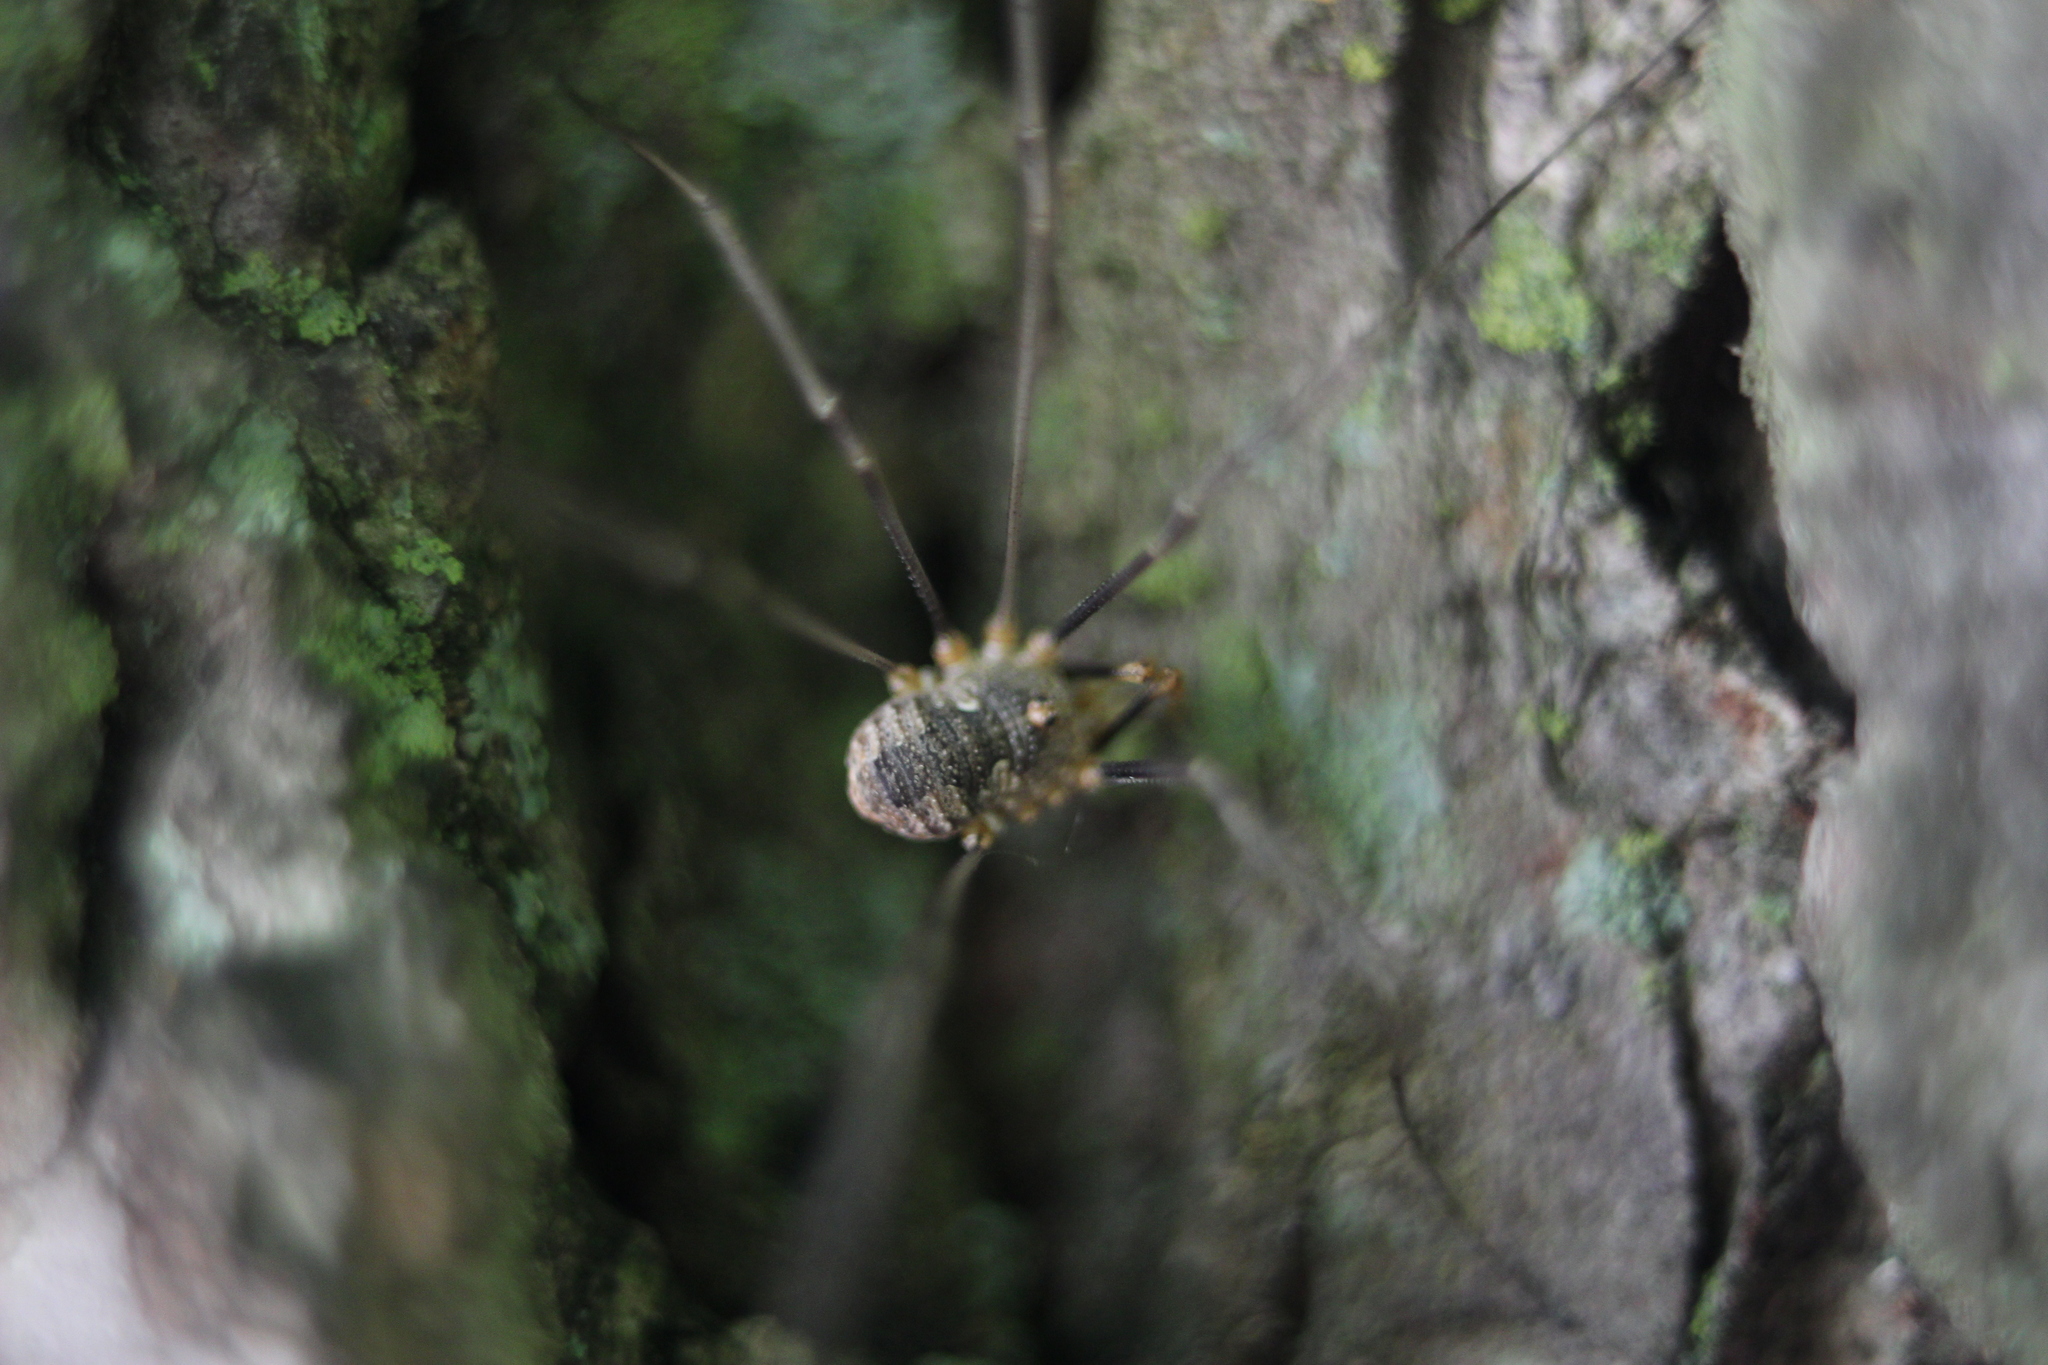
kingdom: Animalia
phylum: Arthropoda
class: Arachnida
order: Opiliones
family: Phalangiidae
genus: Phalangium
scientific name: Phalangium opilio
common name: Daddy longleg
